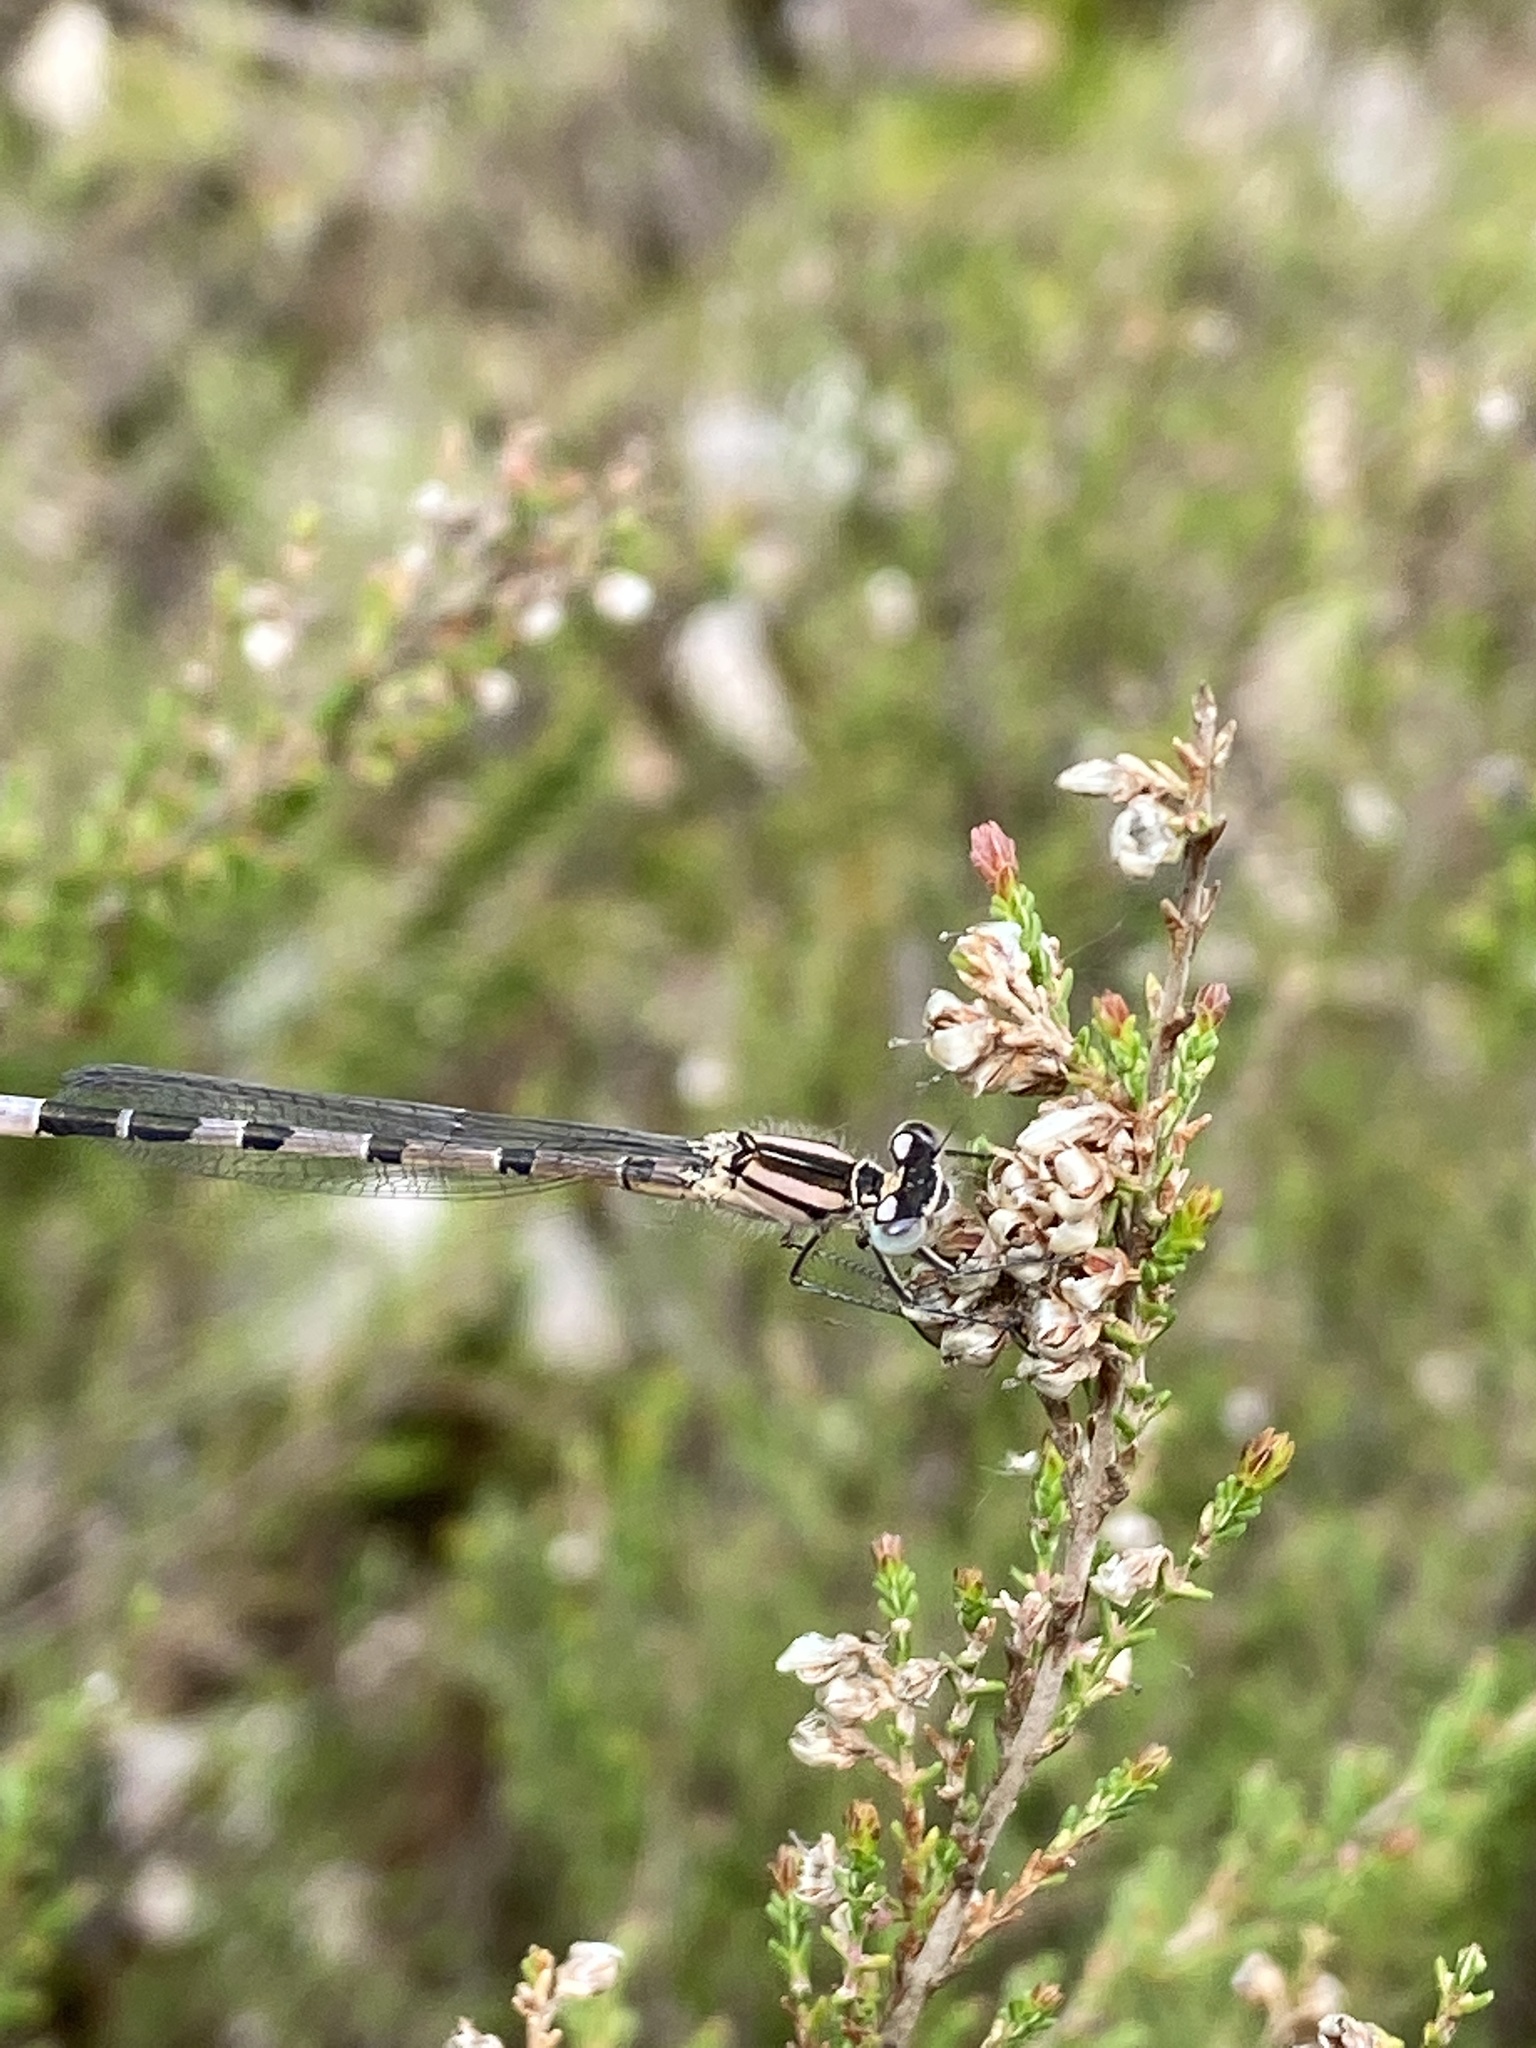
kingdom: Animalia
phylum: Arthropoda
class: Insecta
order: Odonata
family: Coenagrionidae
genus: Enallagma
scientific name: Enallagma cyathigerum
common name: Common blue damselfly
